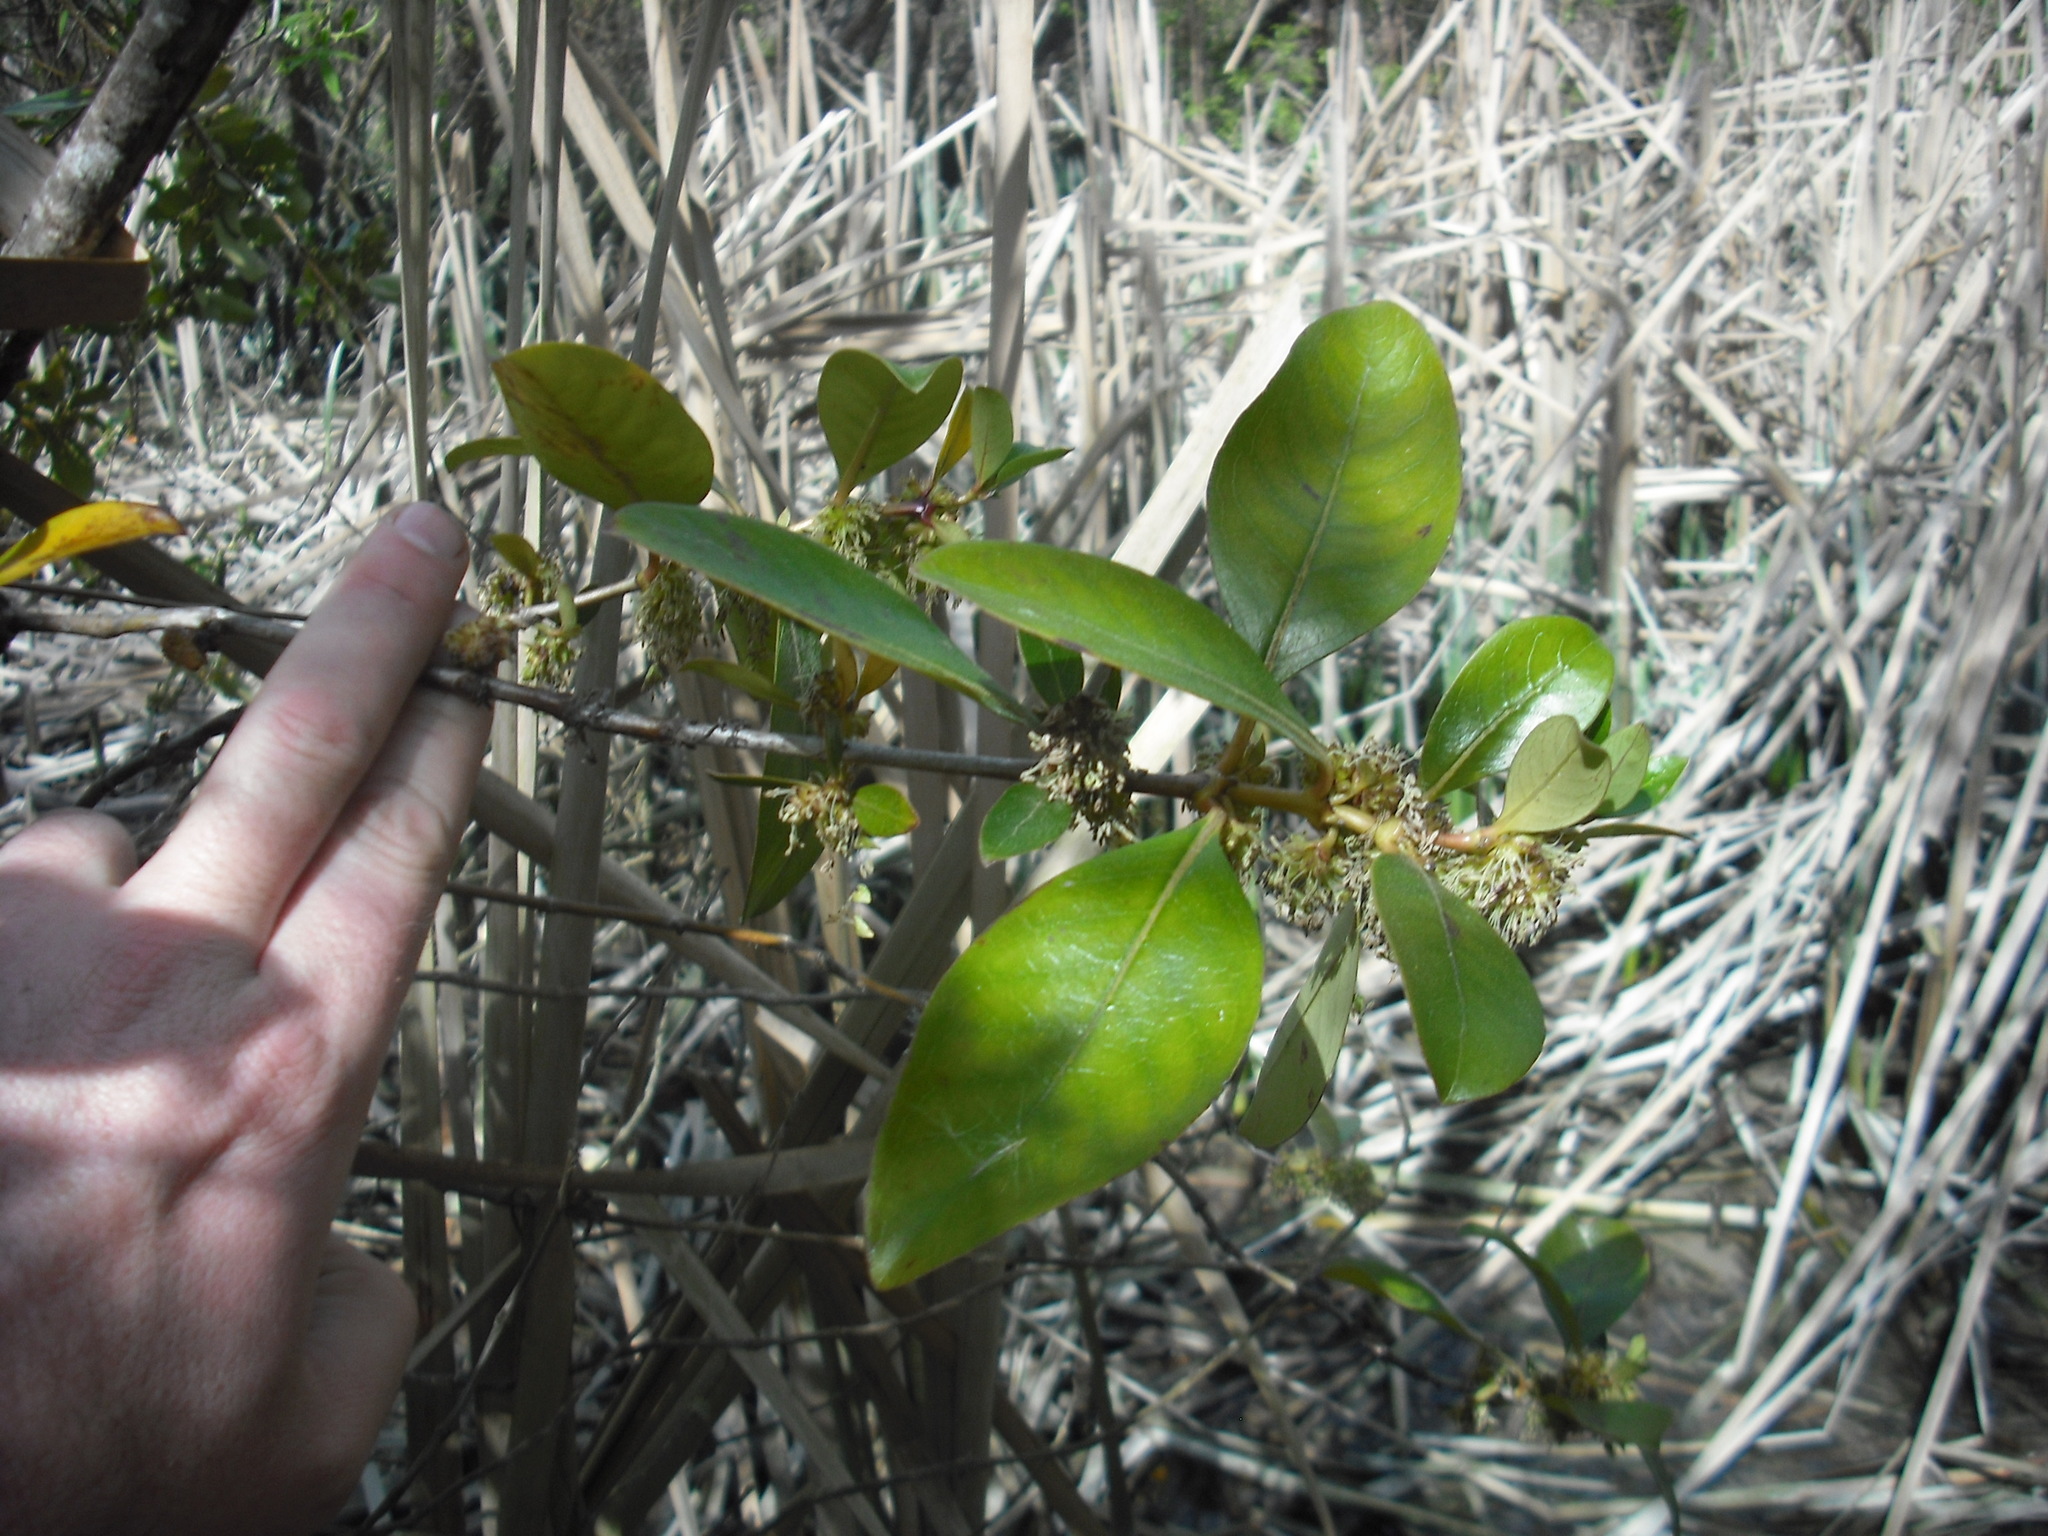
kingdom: Plantae
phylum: Tracheophyta
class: Magnoliopsida
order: Gentianales
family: Rubiaceae
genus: Coprosma
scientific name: Coprosma robusta
